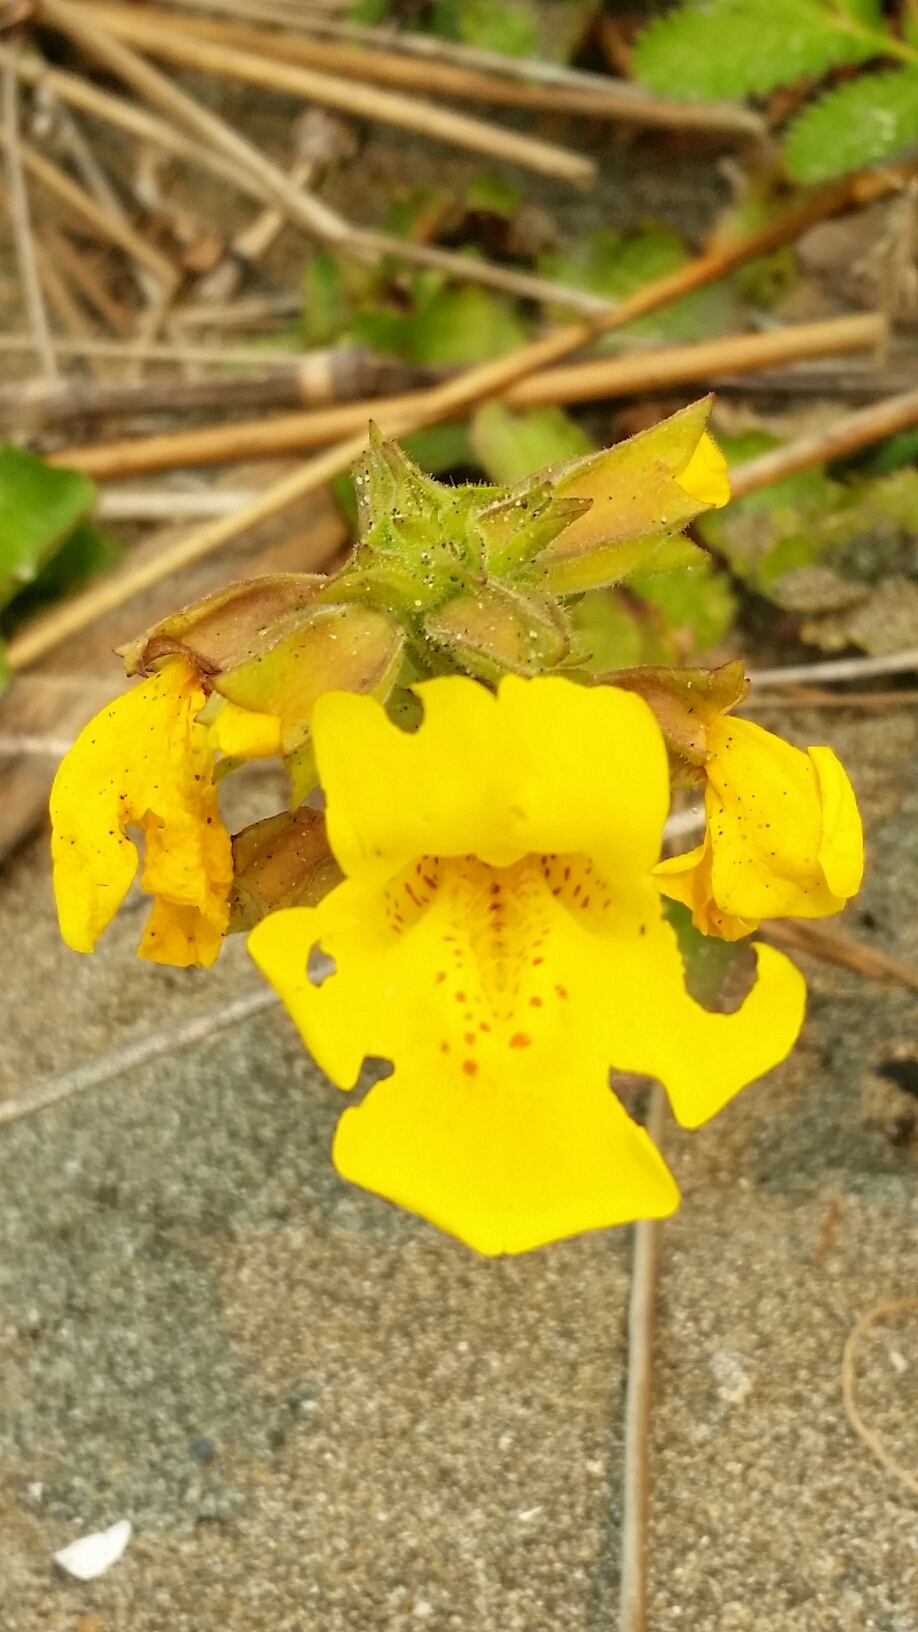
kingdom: Plantae
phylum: Tracheophyta
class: Magnoliopsida
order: Lamiales
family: Phrymaceae
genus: Erythranthe
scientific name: Erythranthe grandis
